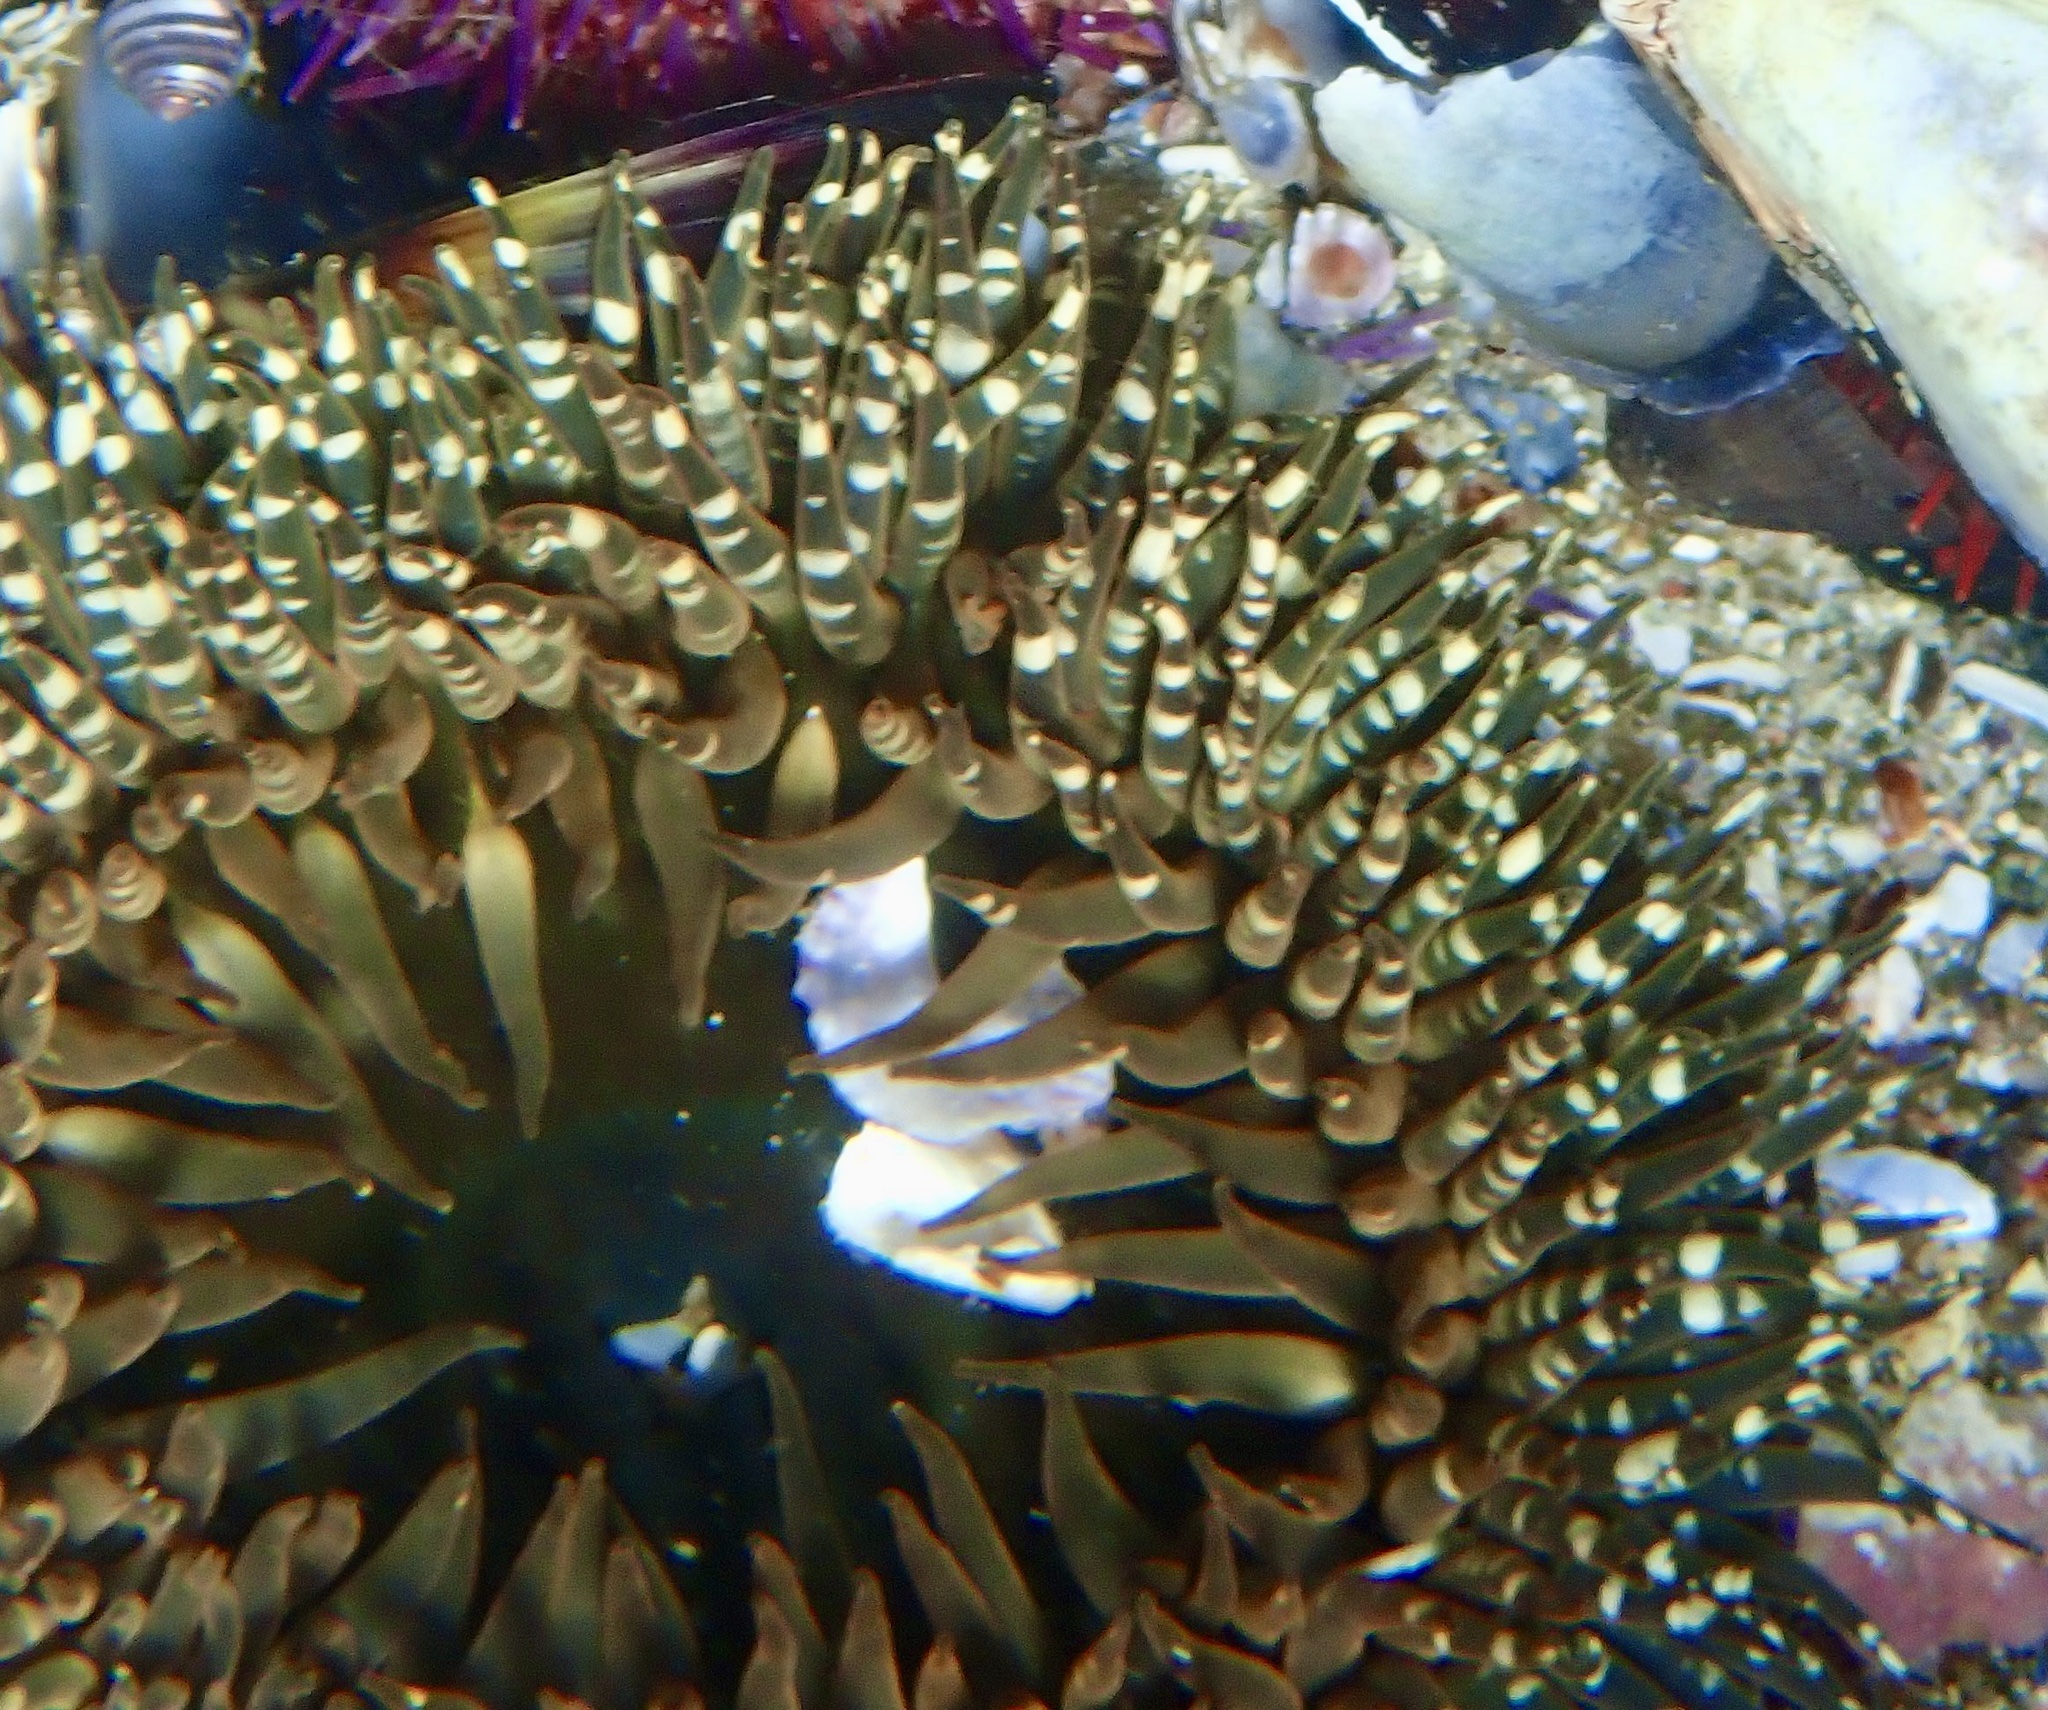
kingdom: Animalia
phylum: Cnidaria
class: Anthozoa
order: Actiniaria
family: Actiniidae
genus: Bunodactis
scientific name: Bunodactis reynaudi
